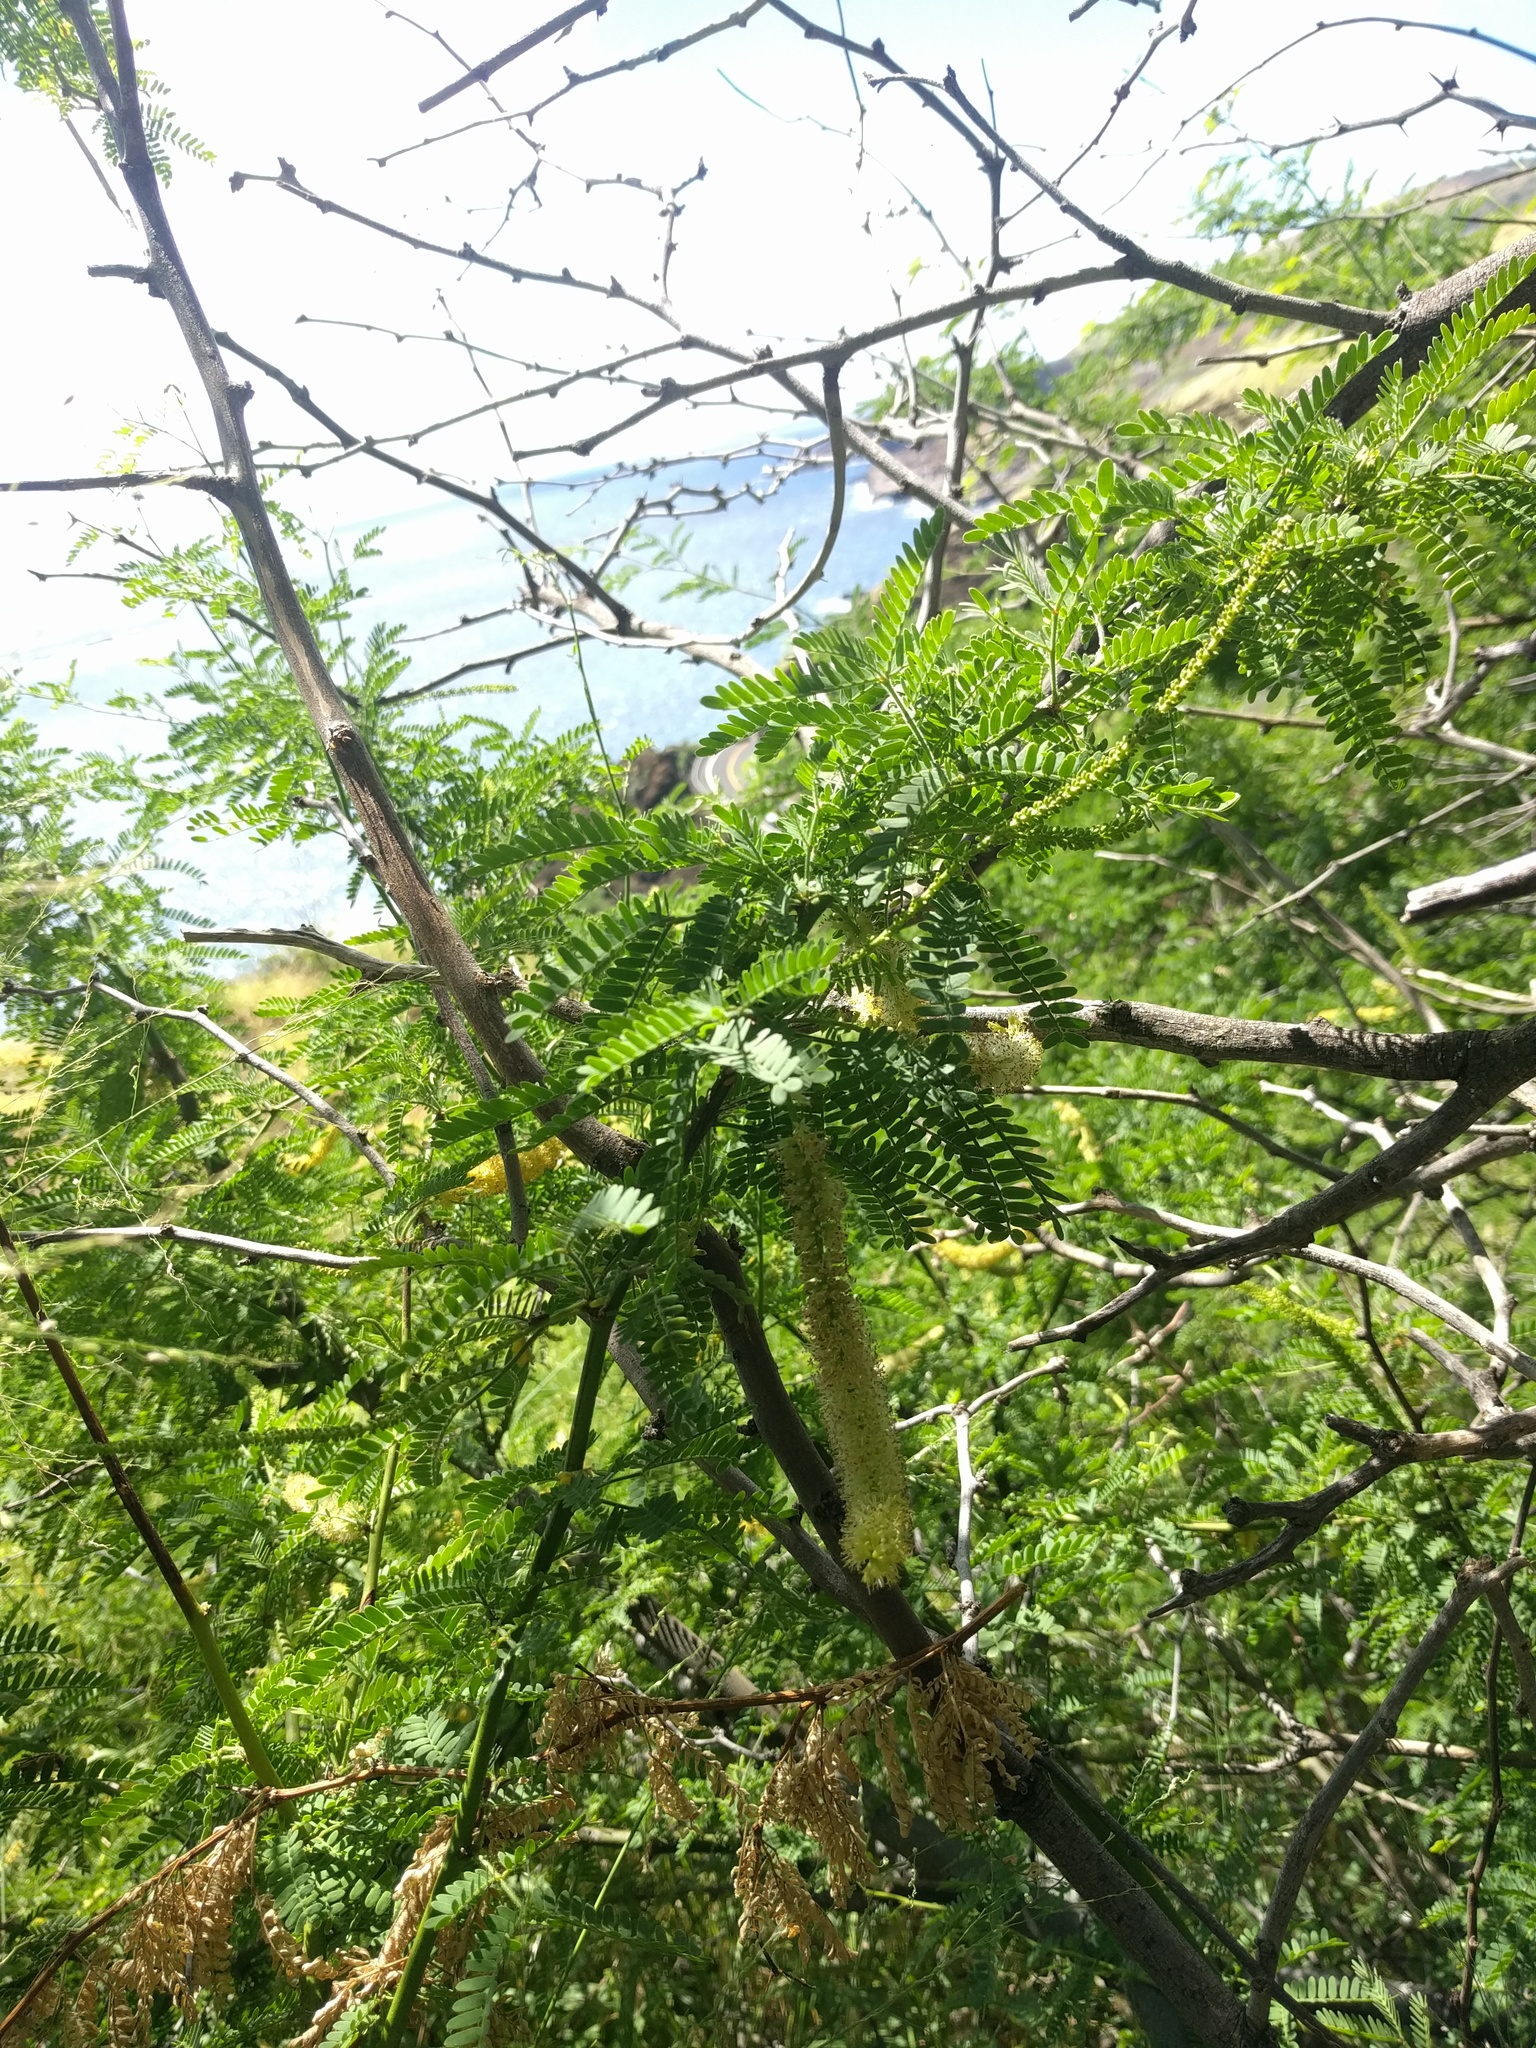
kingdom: Plantae
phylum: Tracheophyta
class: Magnoliopsida
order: Fabales
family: Fabaceae
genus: Prosopis
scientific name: Prosopis pallida
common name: Mesquite
